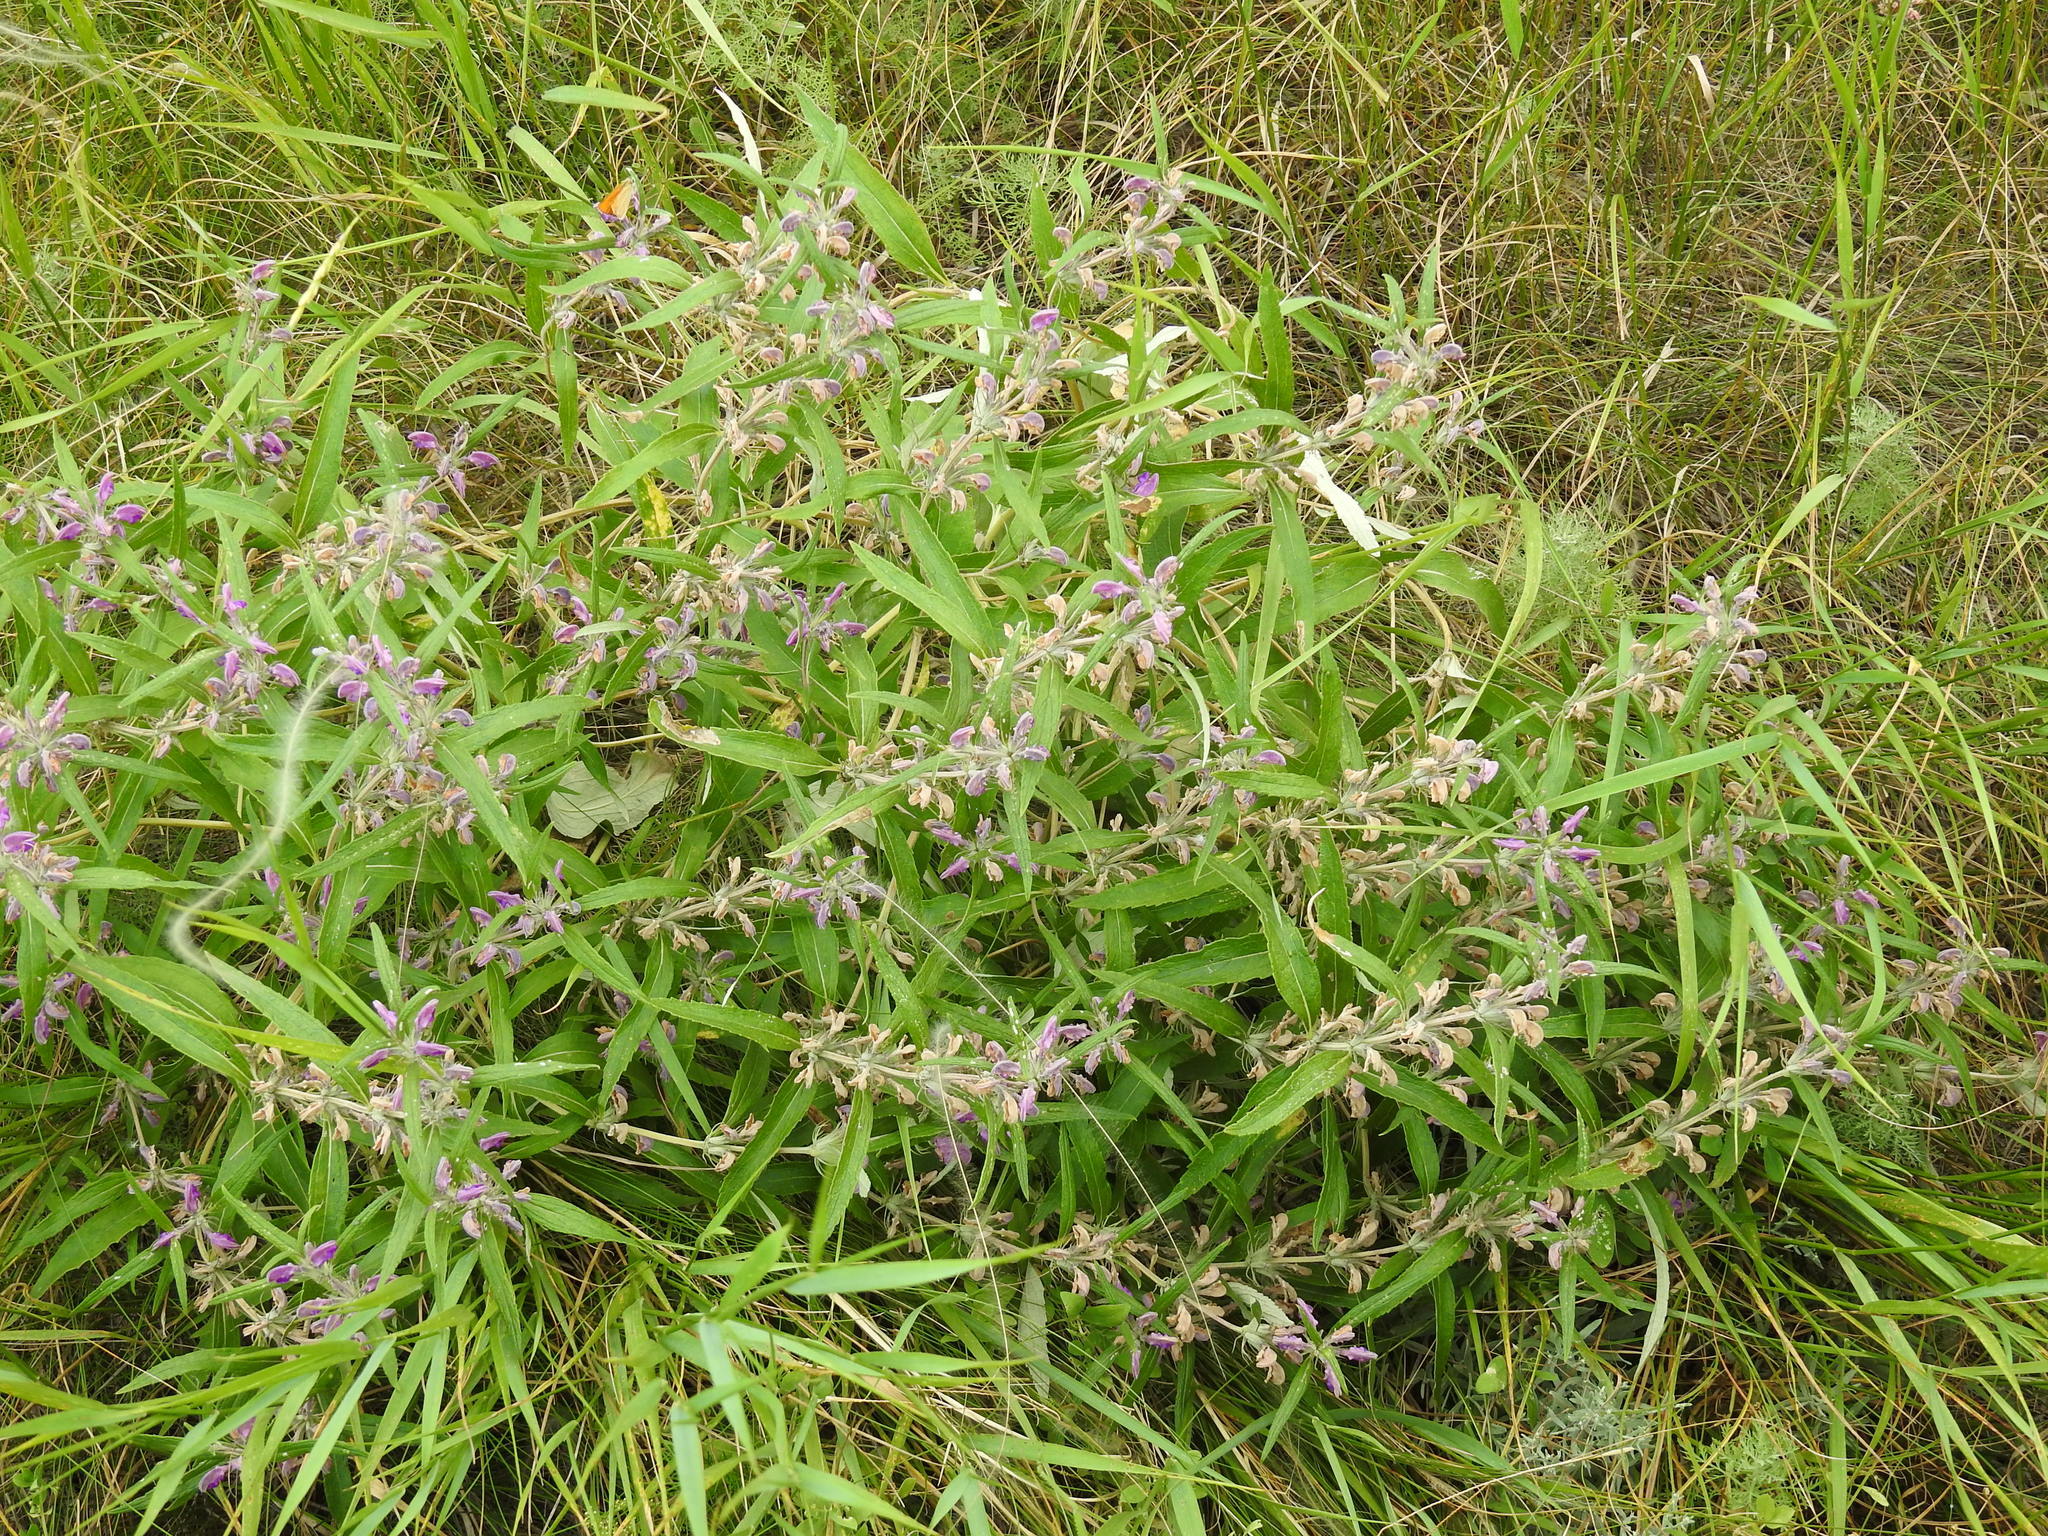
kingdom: Plantae
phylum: Tracheophyta
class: Magnoliopsida
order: Lamiales
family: Lamiaceae
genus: Phlomis
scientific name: Phlomis herba-venti
